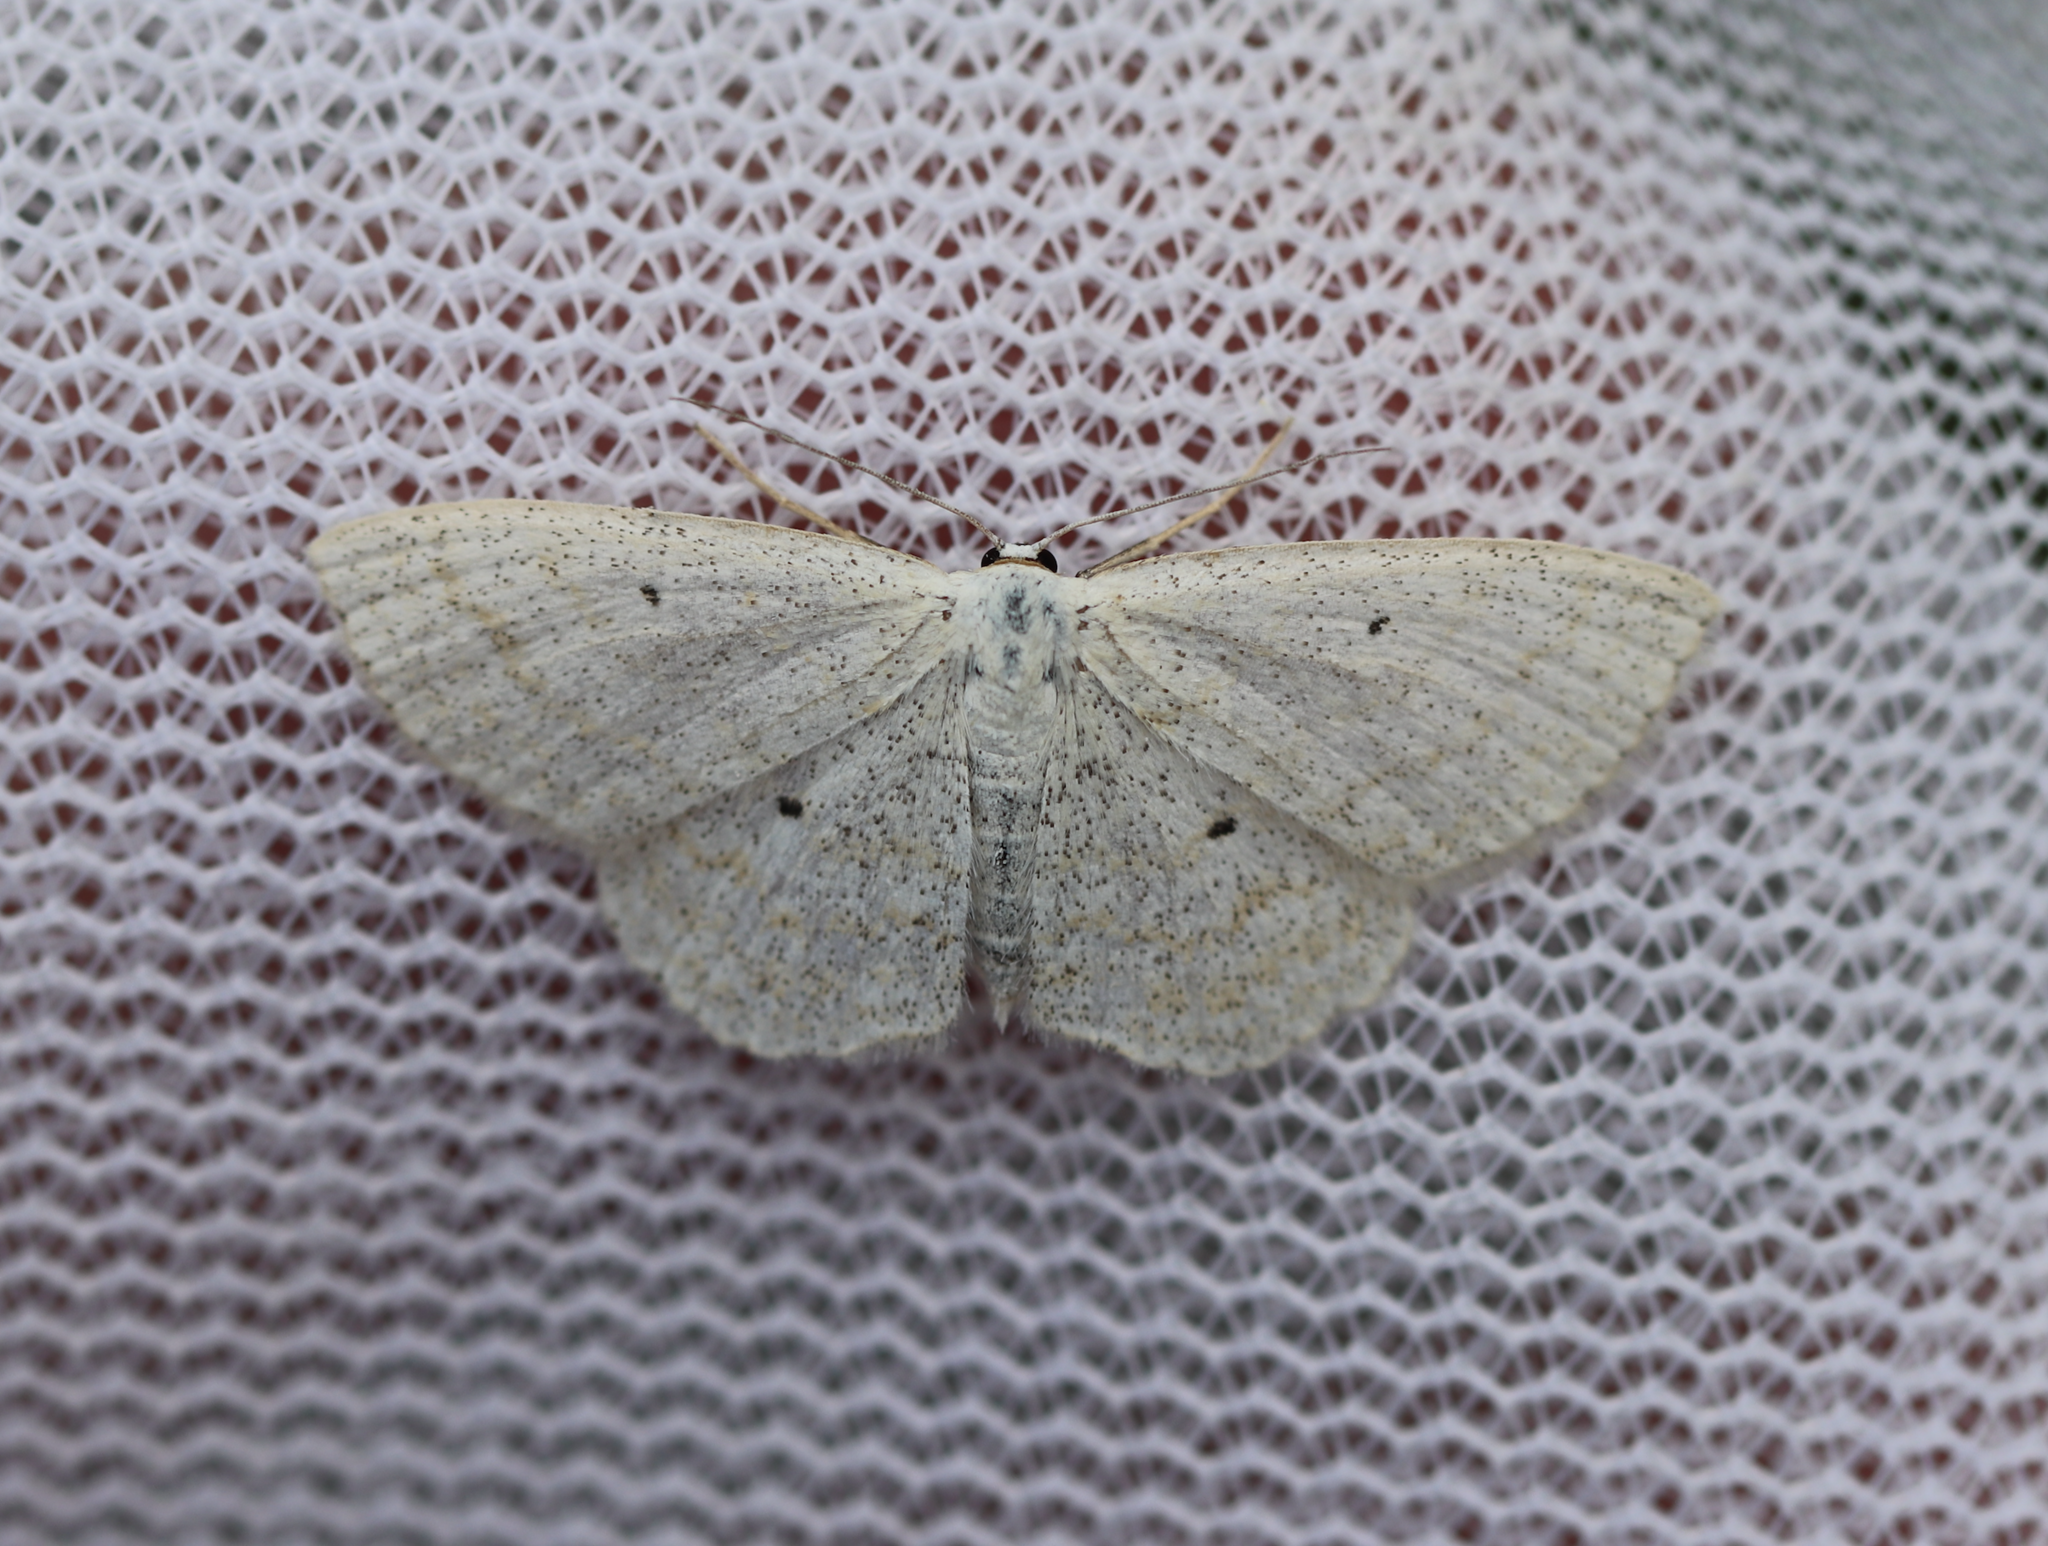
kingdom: Animalia
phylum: Arthropoda
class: Insecta
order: Lepidoptera
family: Geometridae
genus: Scopula
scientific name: Scopula immutata
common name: Lesser cream wave
